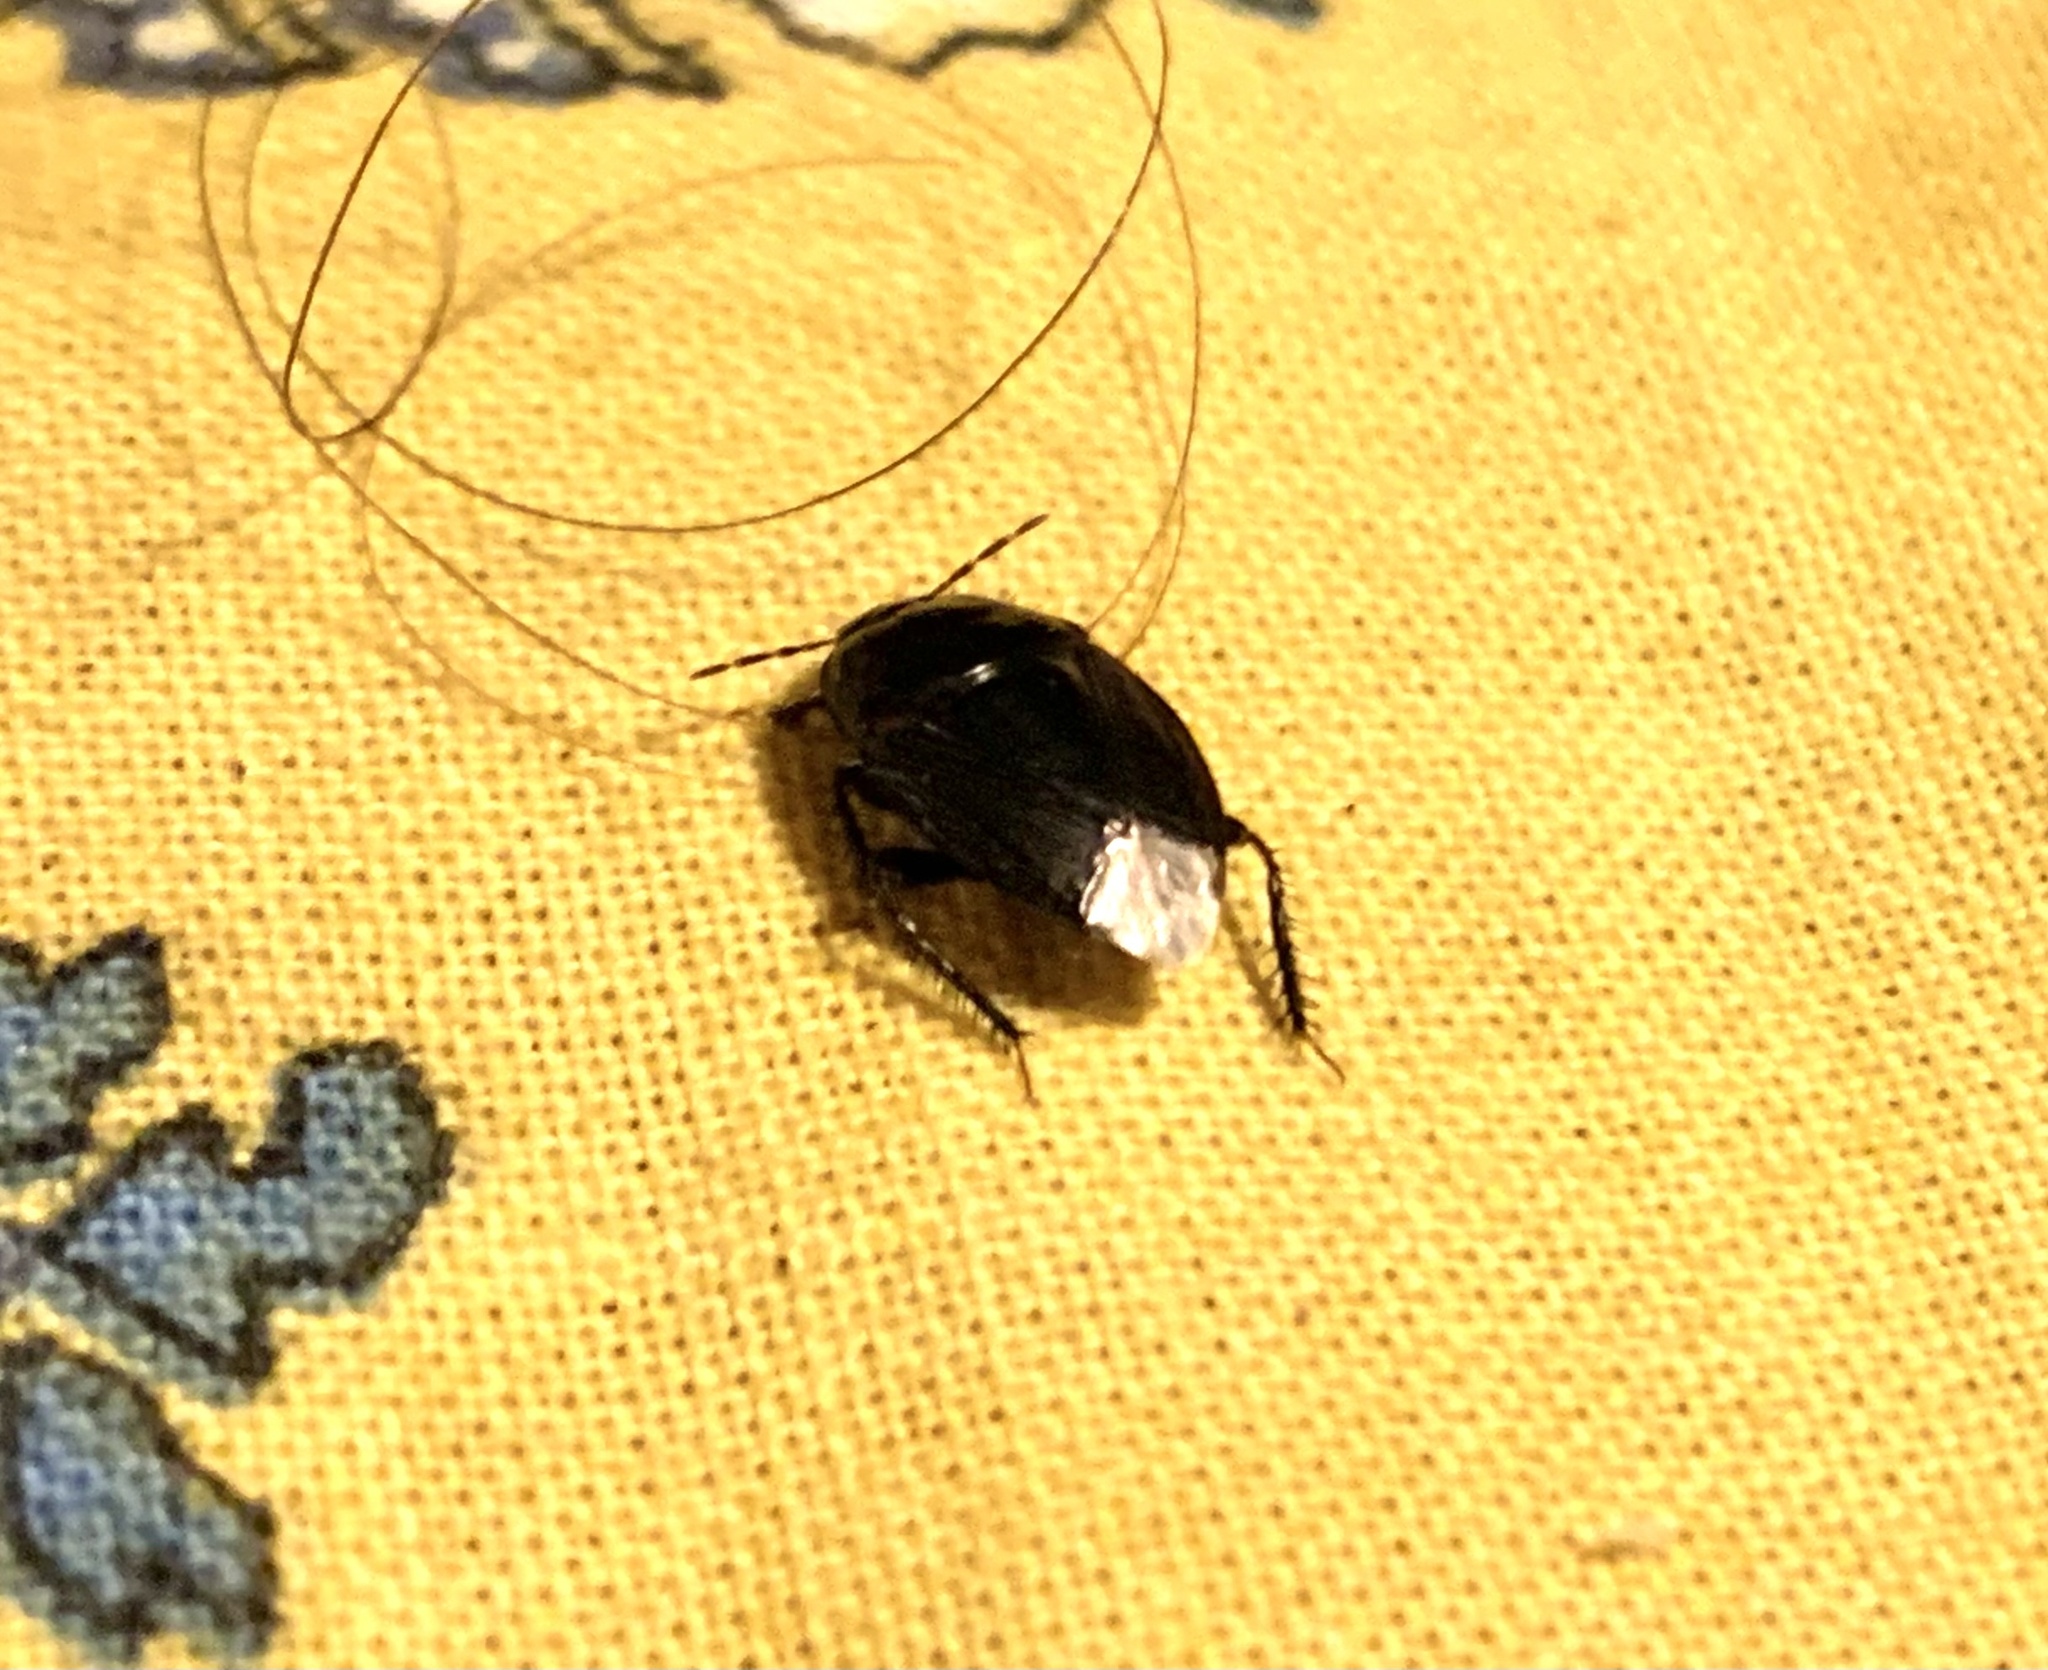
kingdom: Animalia
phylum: Arthropoda
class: Insecta
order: Hemiptera
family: Cydnidae
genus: Macroscytus
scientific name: Macroscytus brunneus
